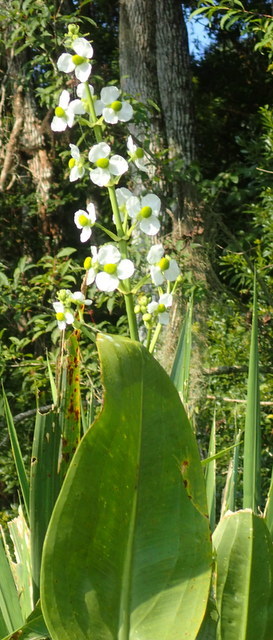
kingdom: Plantae
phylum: Tracheophyta
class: Liliopsida
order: Alismatales
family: Alismataceae
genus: Sagittaria
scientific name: Sagittaria lancifolia
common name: Lance-leaf arrowhead
